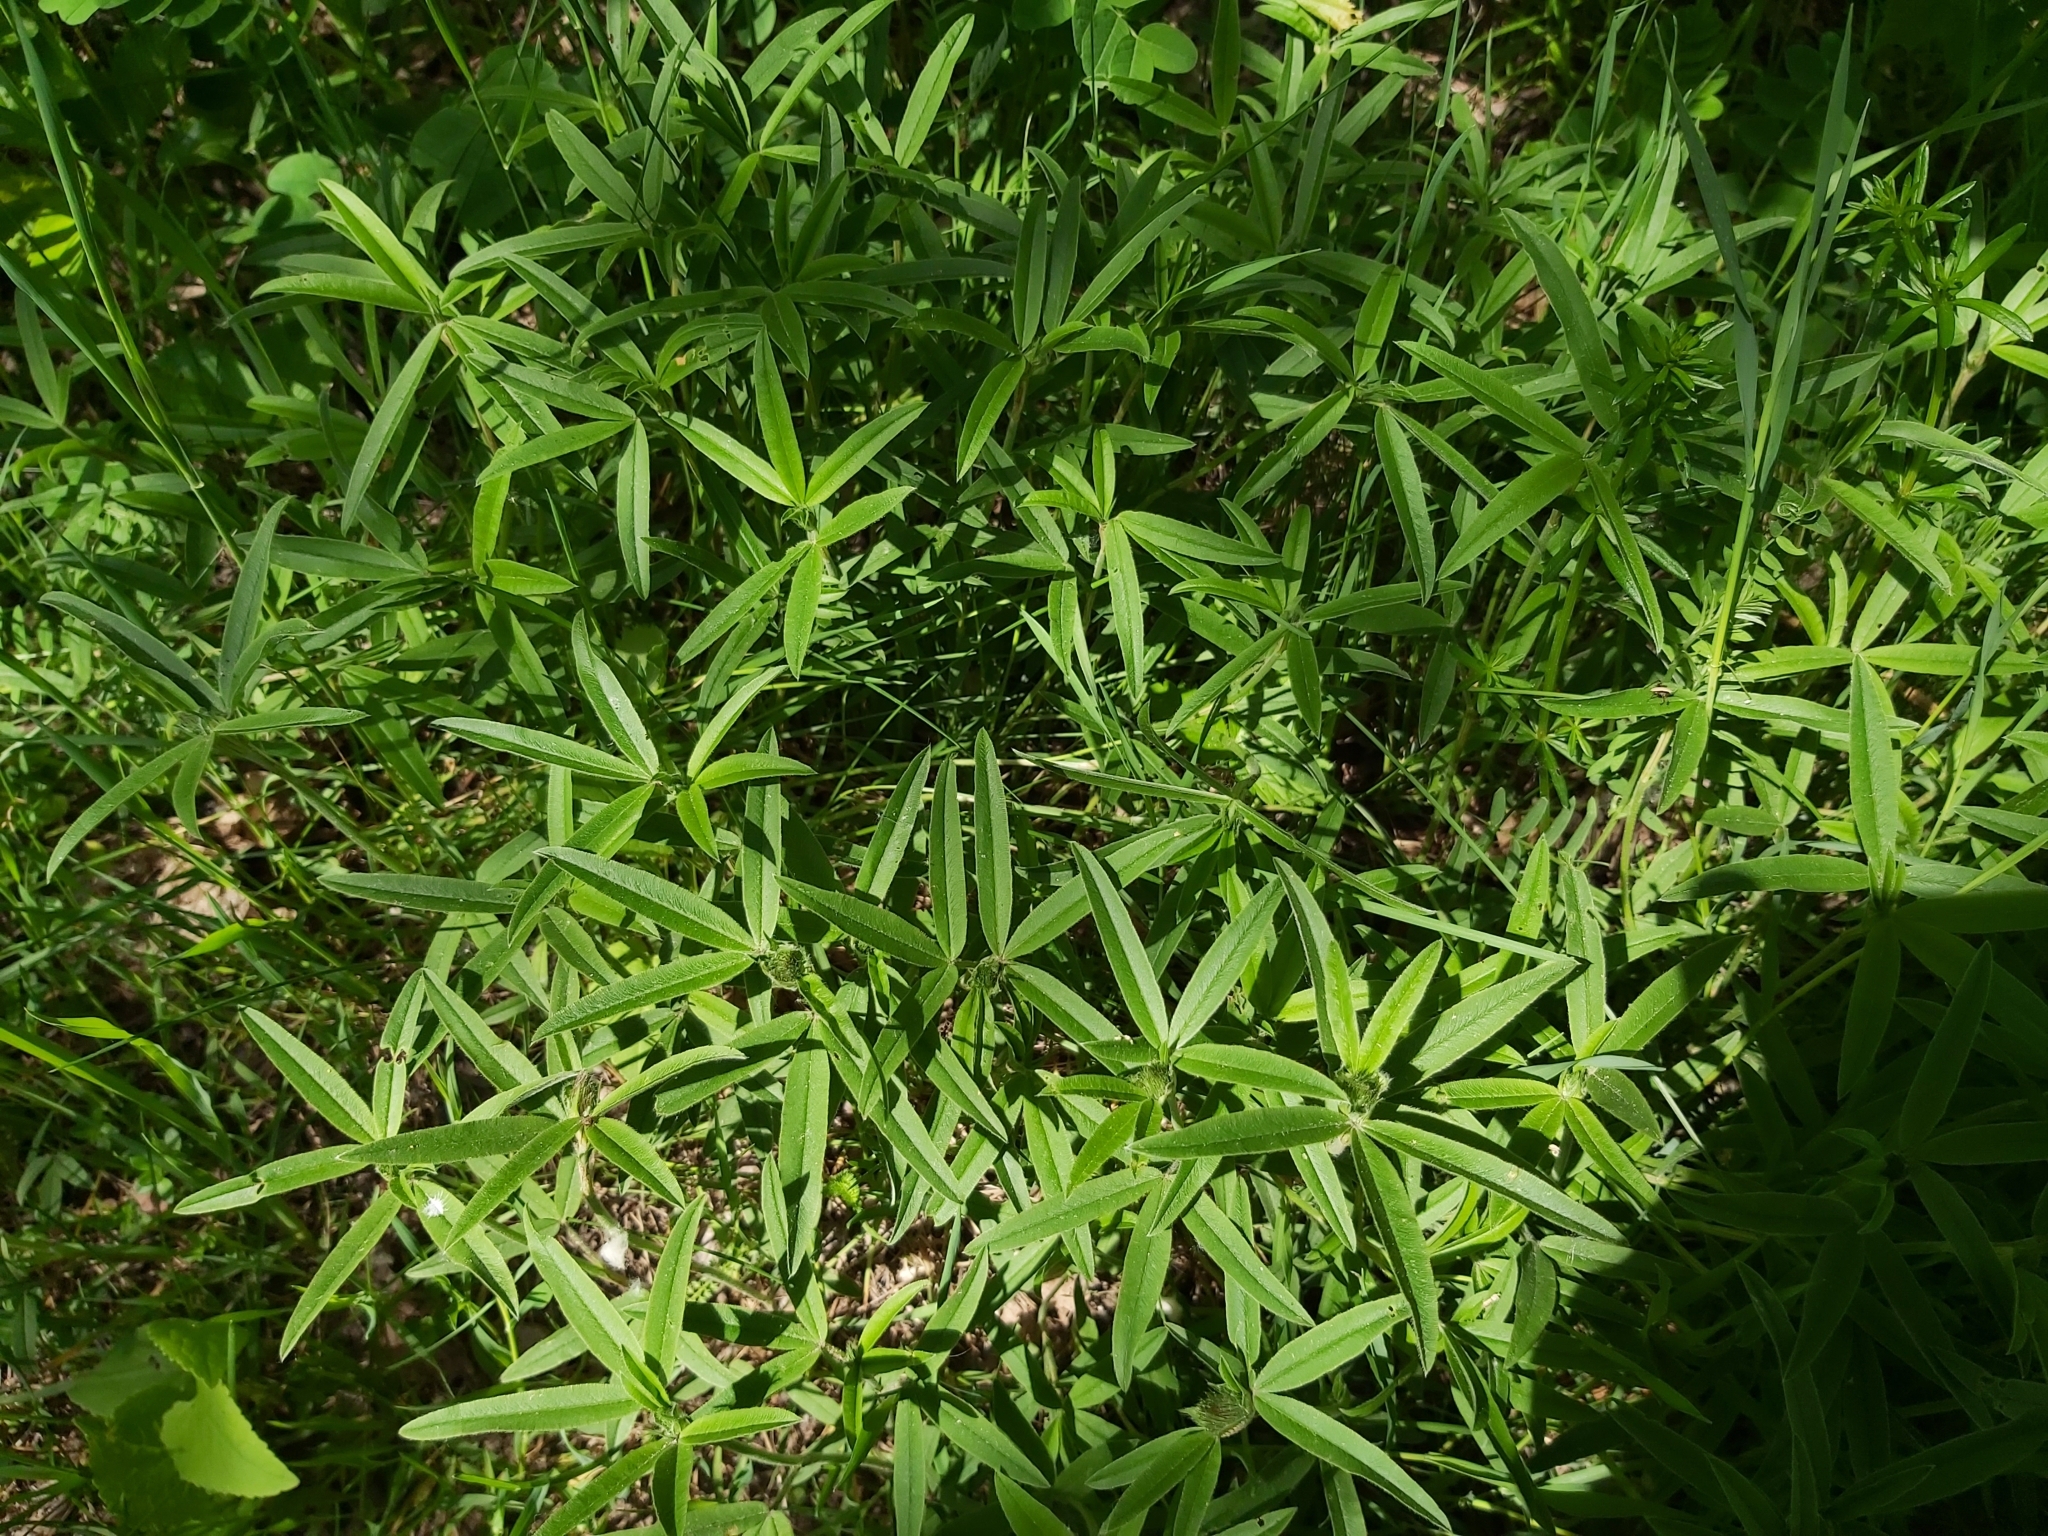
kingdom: Plantae
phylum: Tracheophyta
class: Magnoliopsida
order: Fabales
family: Fabaceae
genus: Trifolium
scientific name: Trifolium alpestre
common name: Owl-head clover
